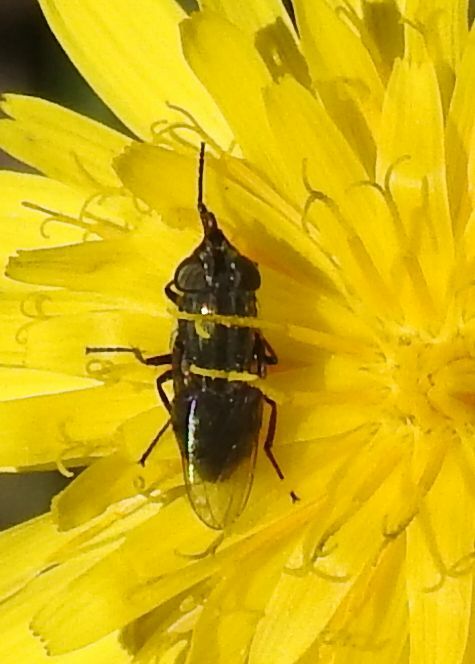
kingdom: Animalia
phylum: Arthropoda
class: Insecta
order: Diptera
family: Calliphoridae
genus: Stomorhina
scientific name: Stomorhina lunata
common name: Locust blowfly
